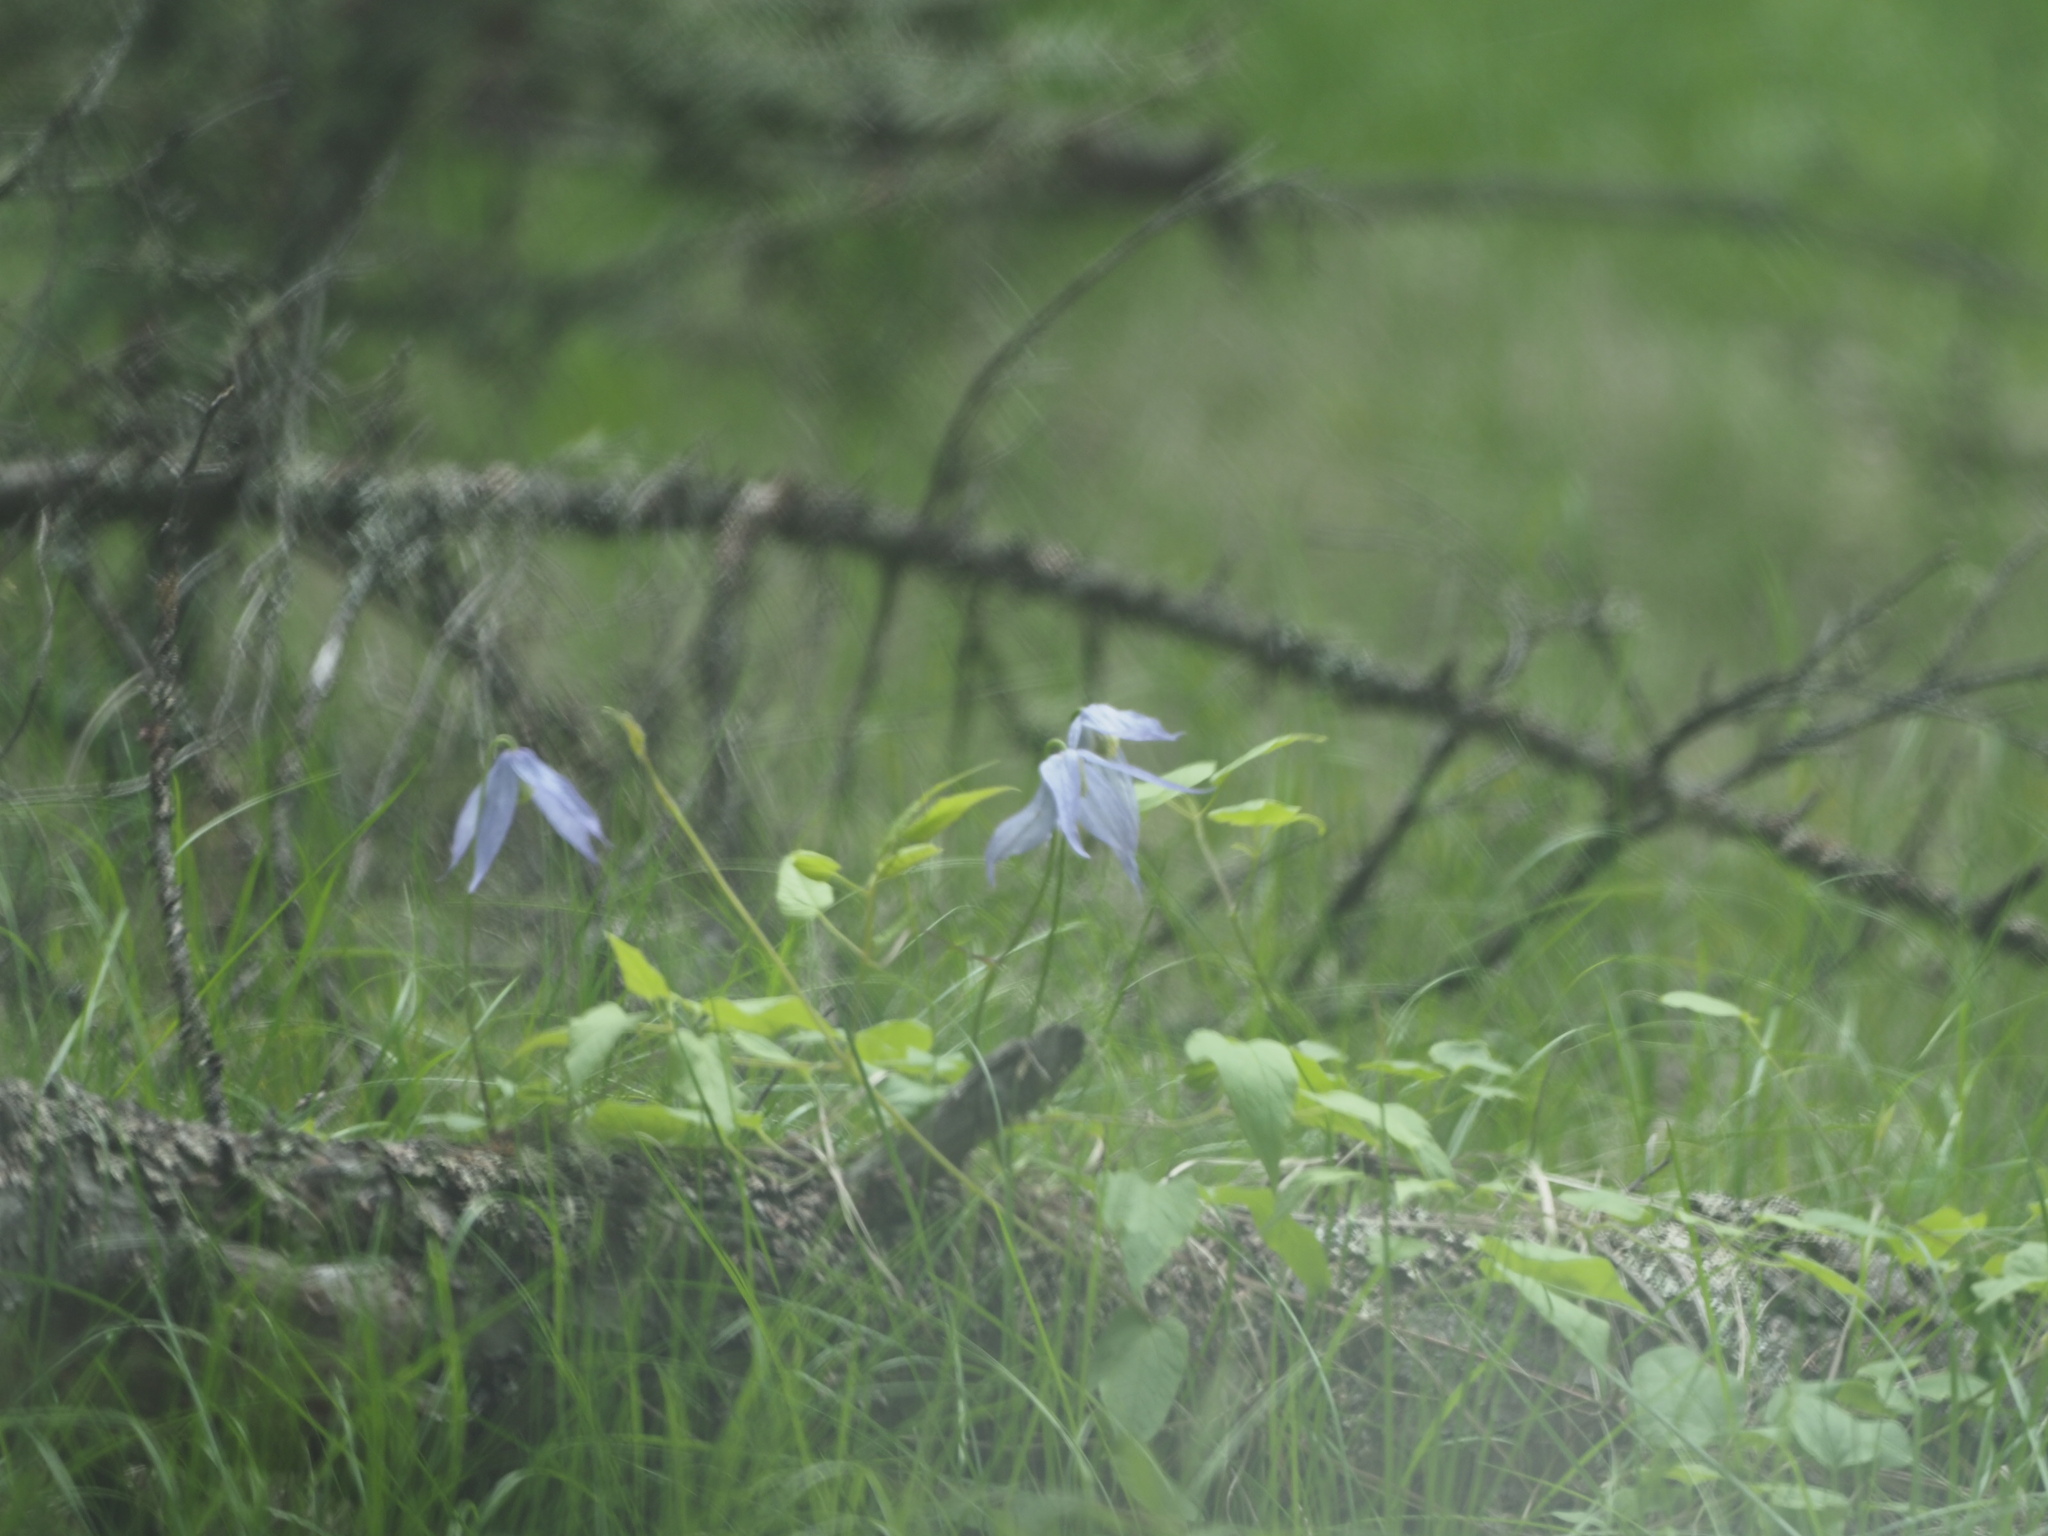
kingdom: Plantae
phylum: Tracheophyta
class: Magnoliopsida
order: Ranunculales
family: Ranunculaceae
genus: Clematis
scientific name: Clematis occidentalis
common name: Purple clematis
